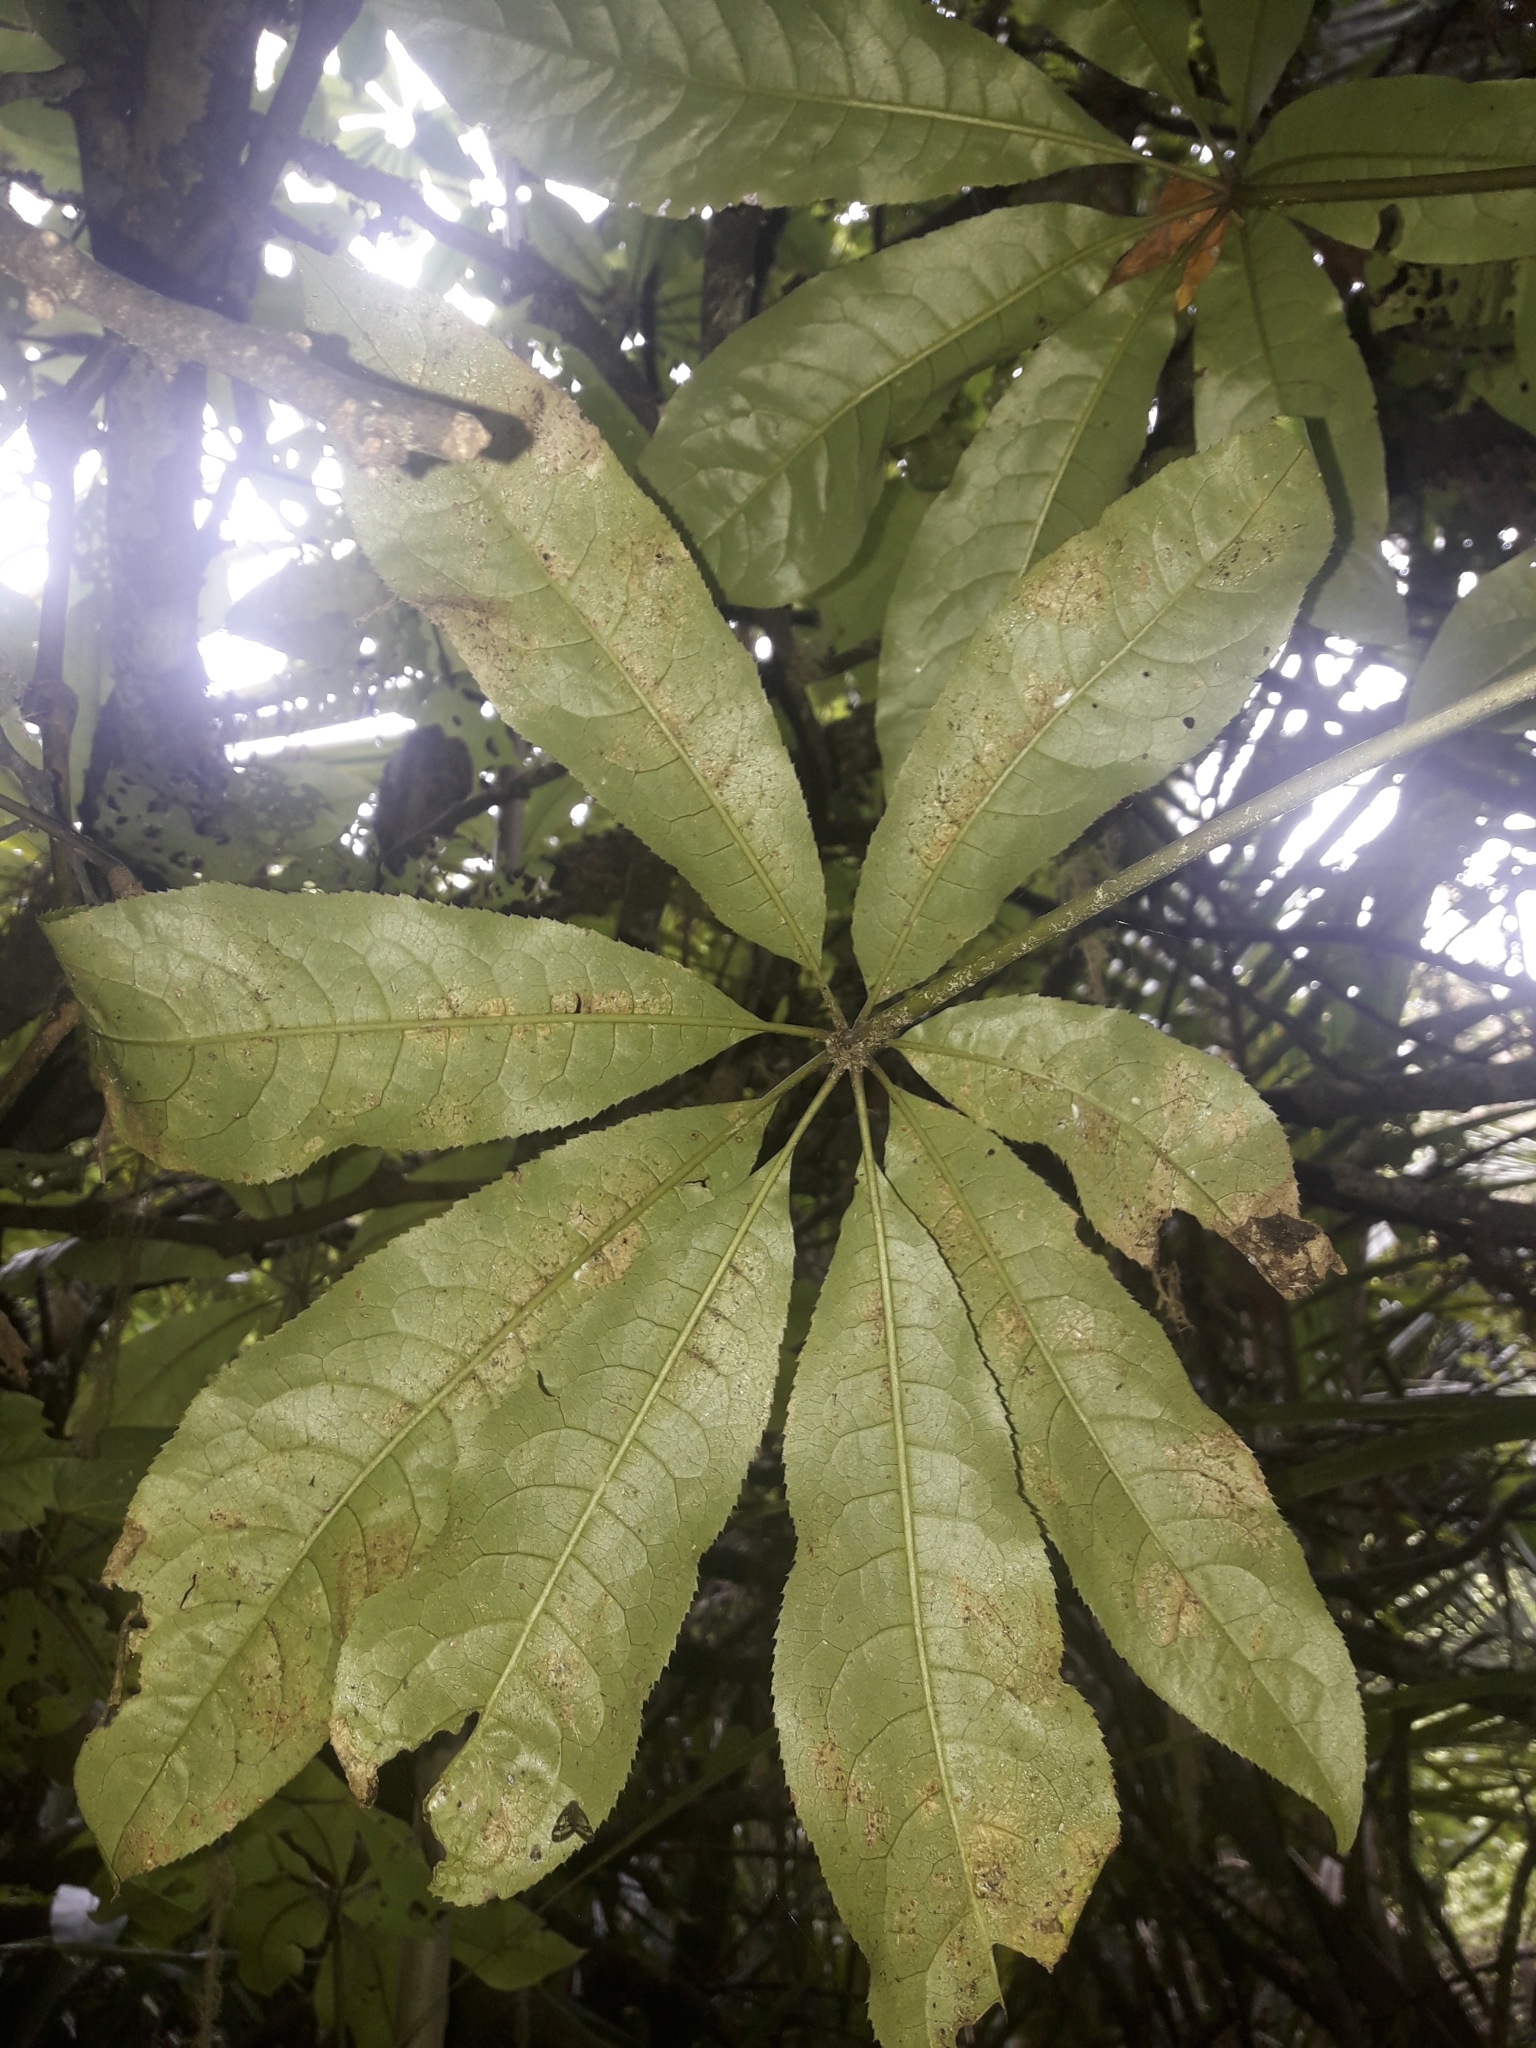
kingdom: Plantae
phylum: Tracheophyta
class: Magnoliopsida
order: Apiales
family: Araliaceae
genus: Schefflera
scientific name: Schefflera digitata
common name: Pate
